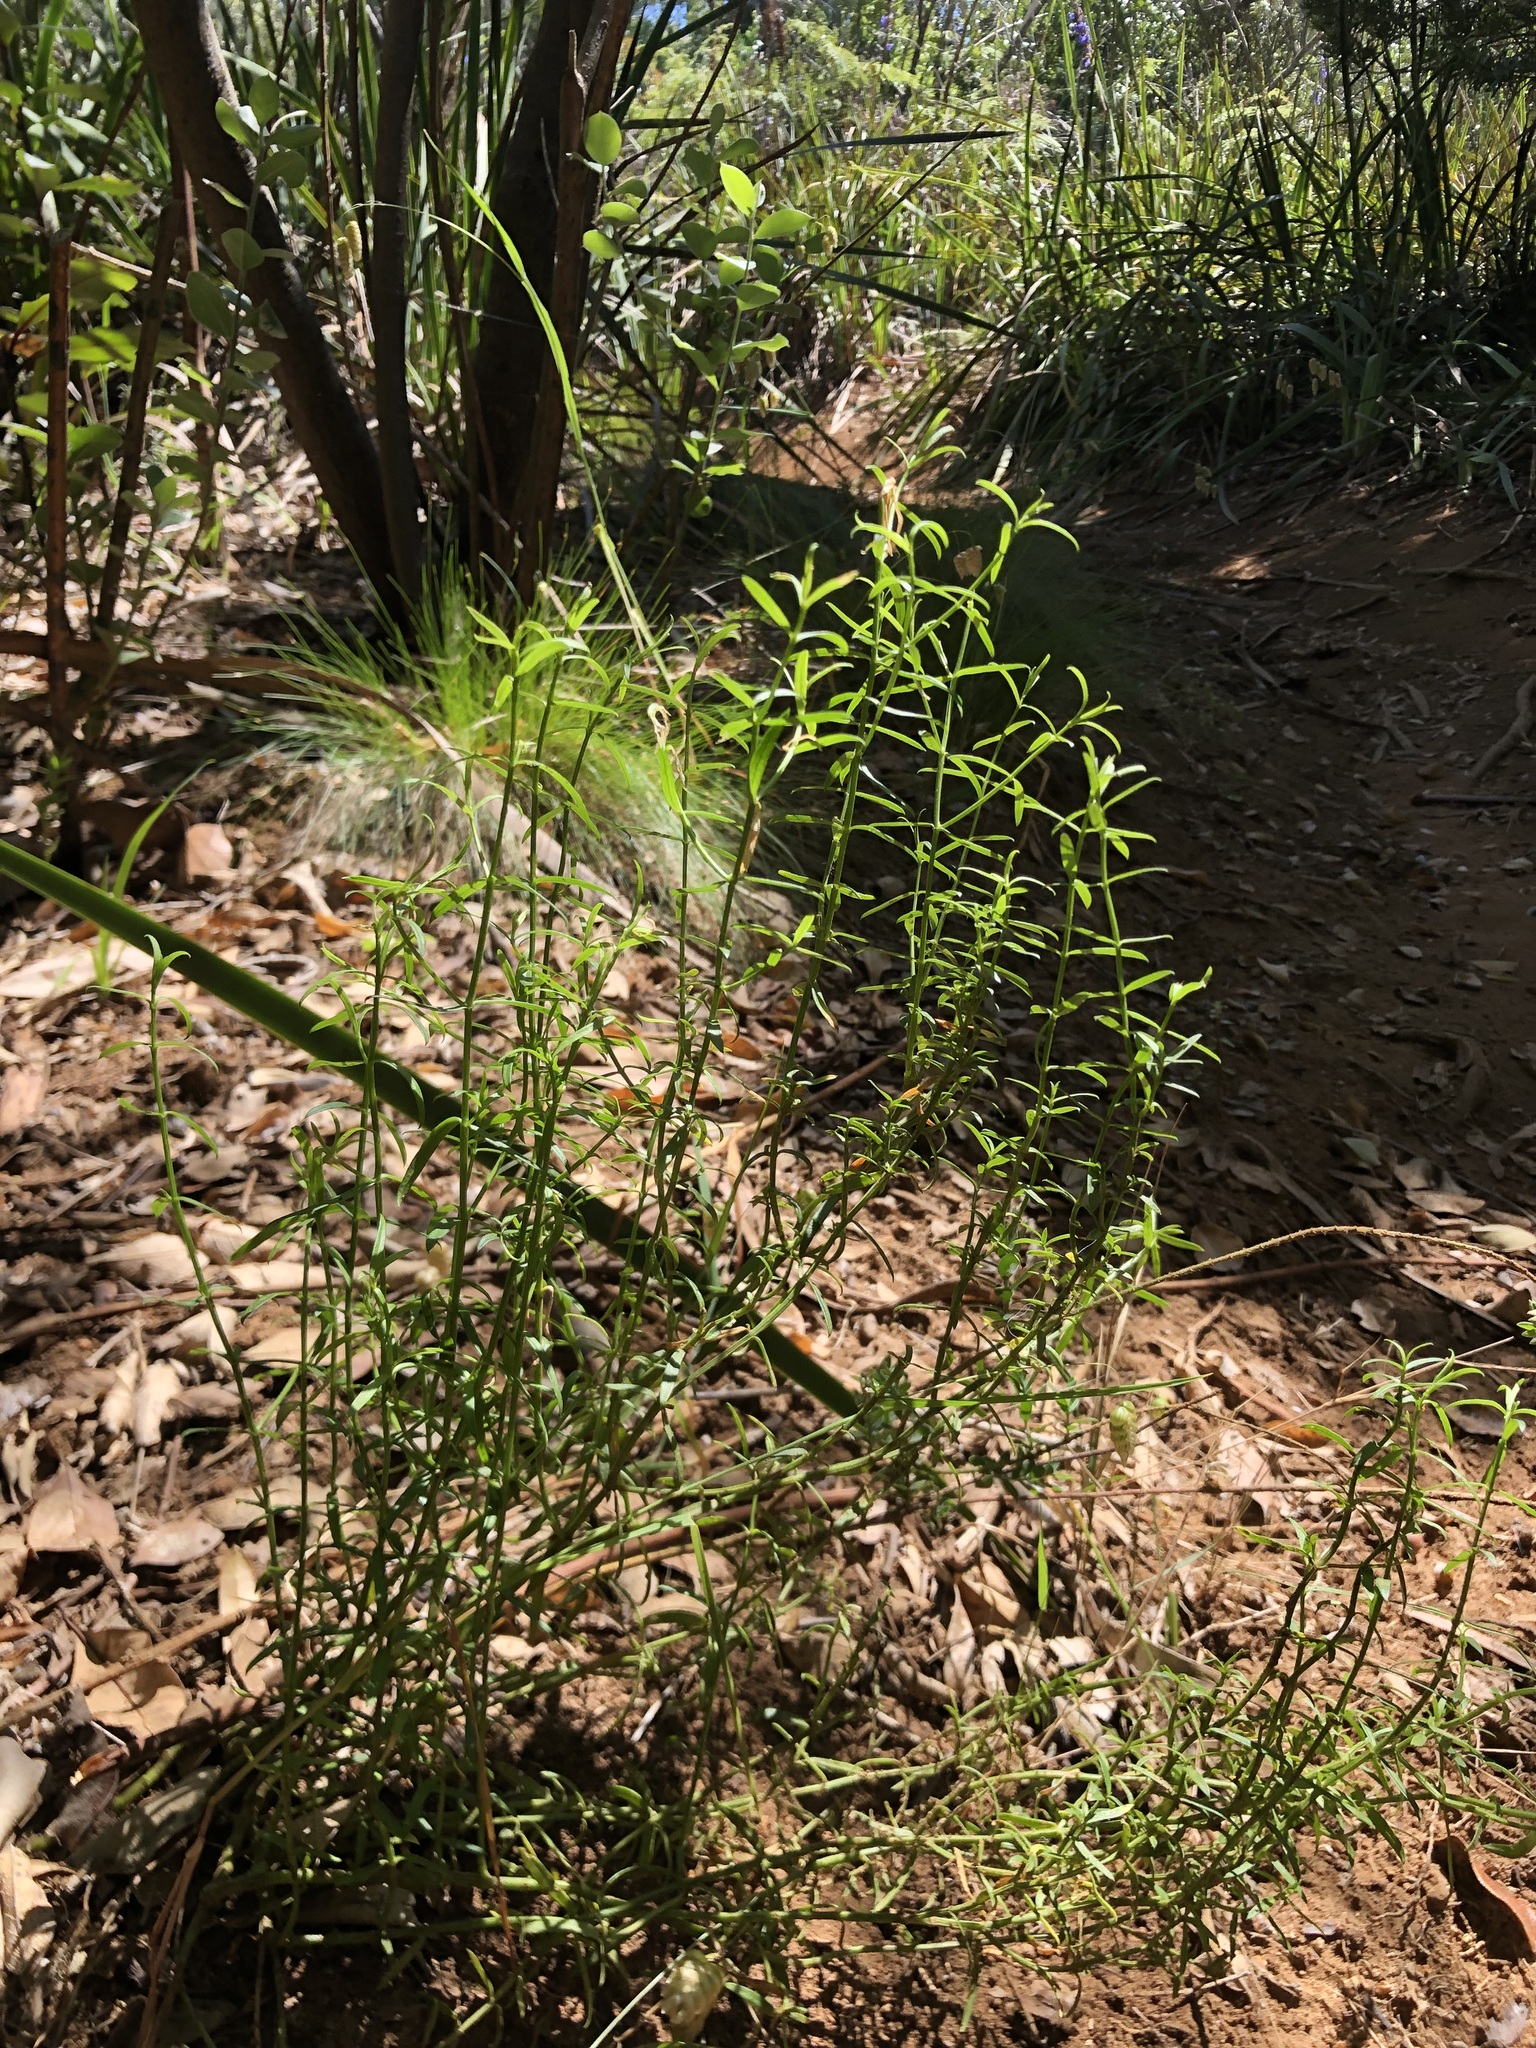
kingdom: Plantae
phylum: Tracheophyta
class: Magnoliopsida
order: Gentianales
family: Gentianaceae
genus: Chironia
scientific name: Chironia baccifera
